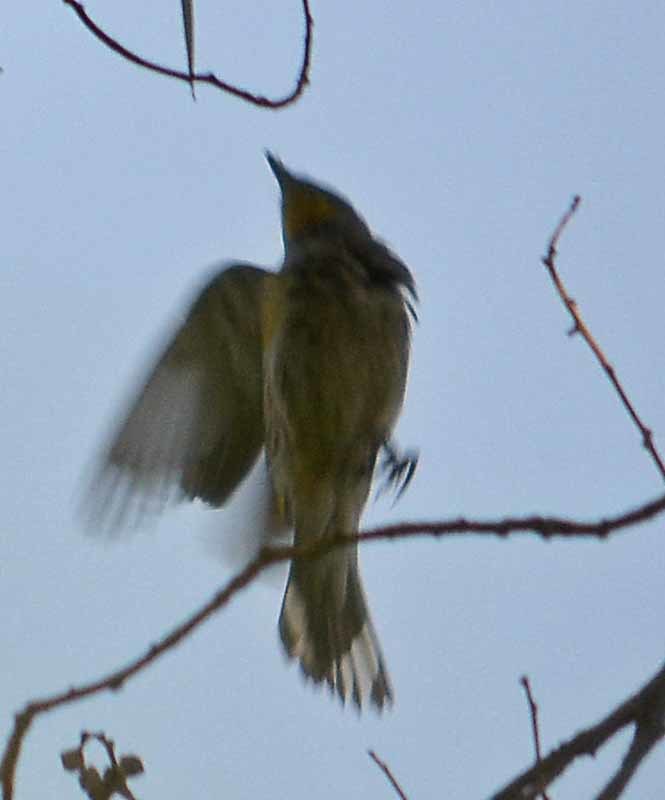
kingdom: Animalia
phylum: Chordata
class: Aves
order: Passeriformes
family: Parulidae
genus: Setophaga
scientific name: Setophaga coronata
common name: Myrtle warbler
